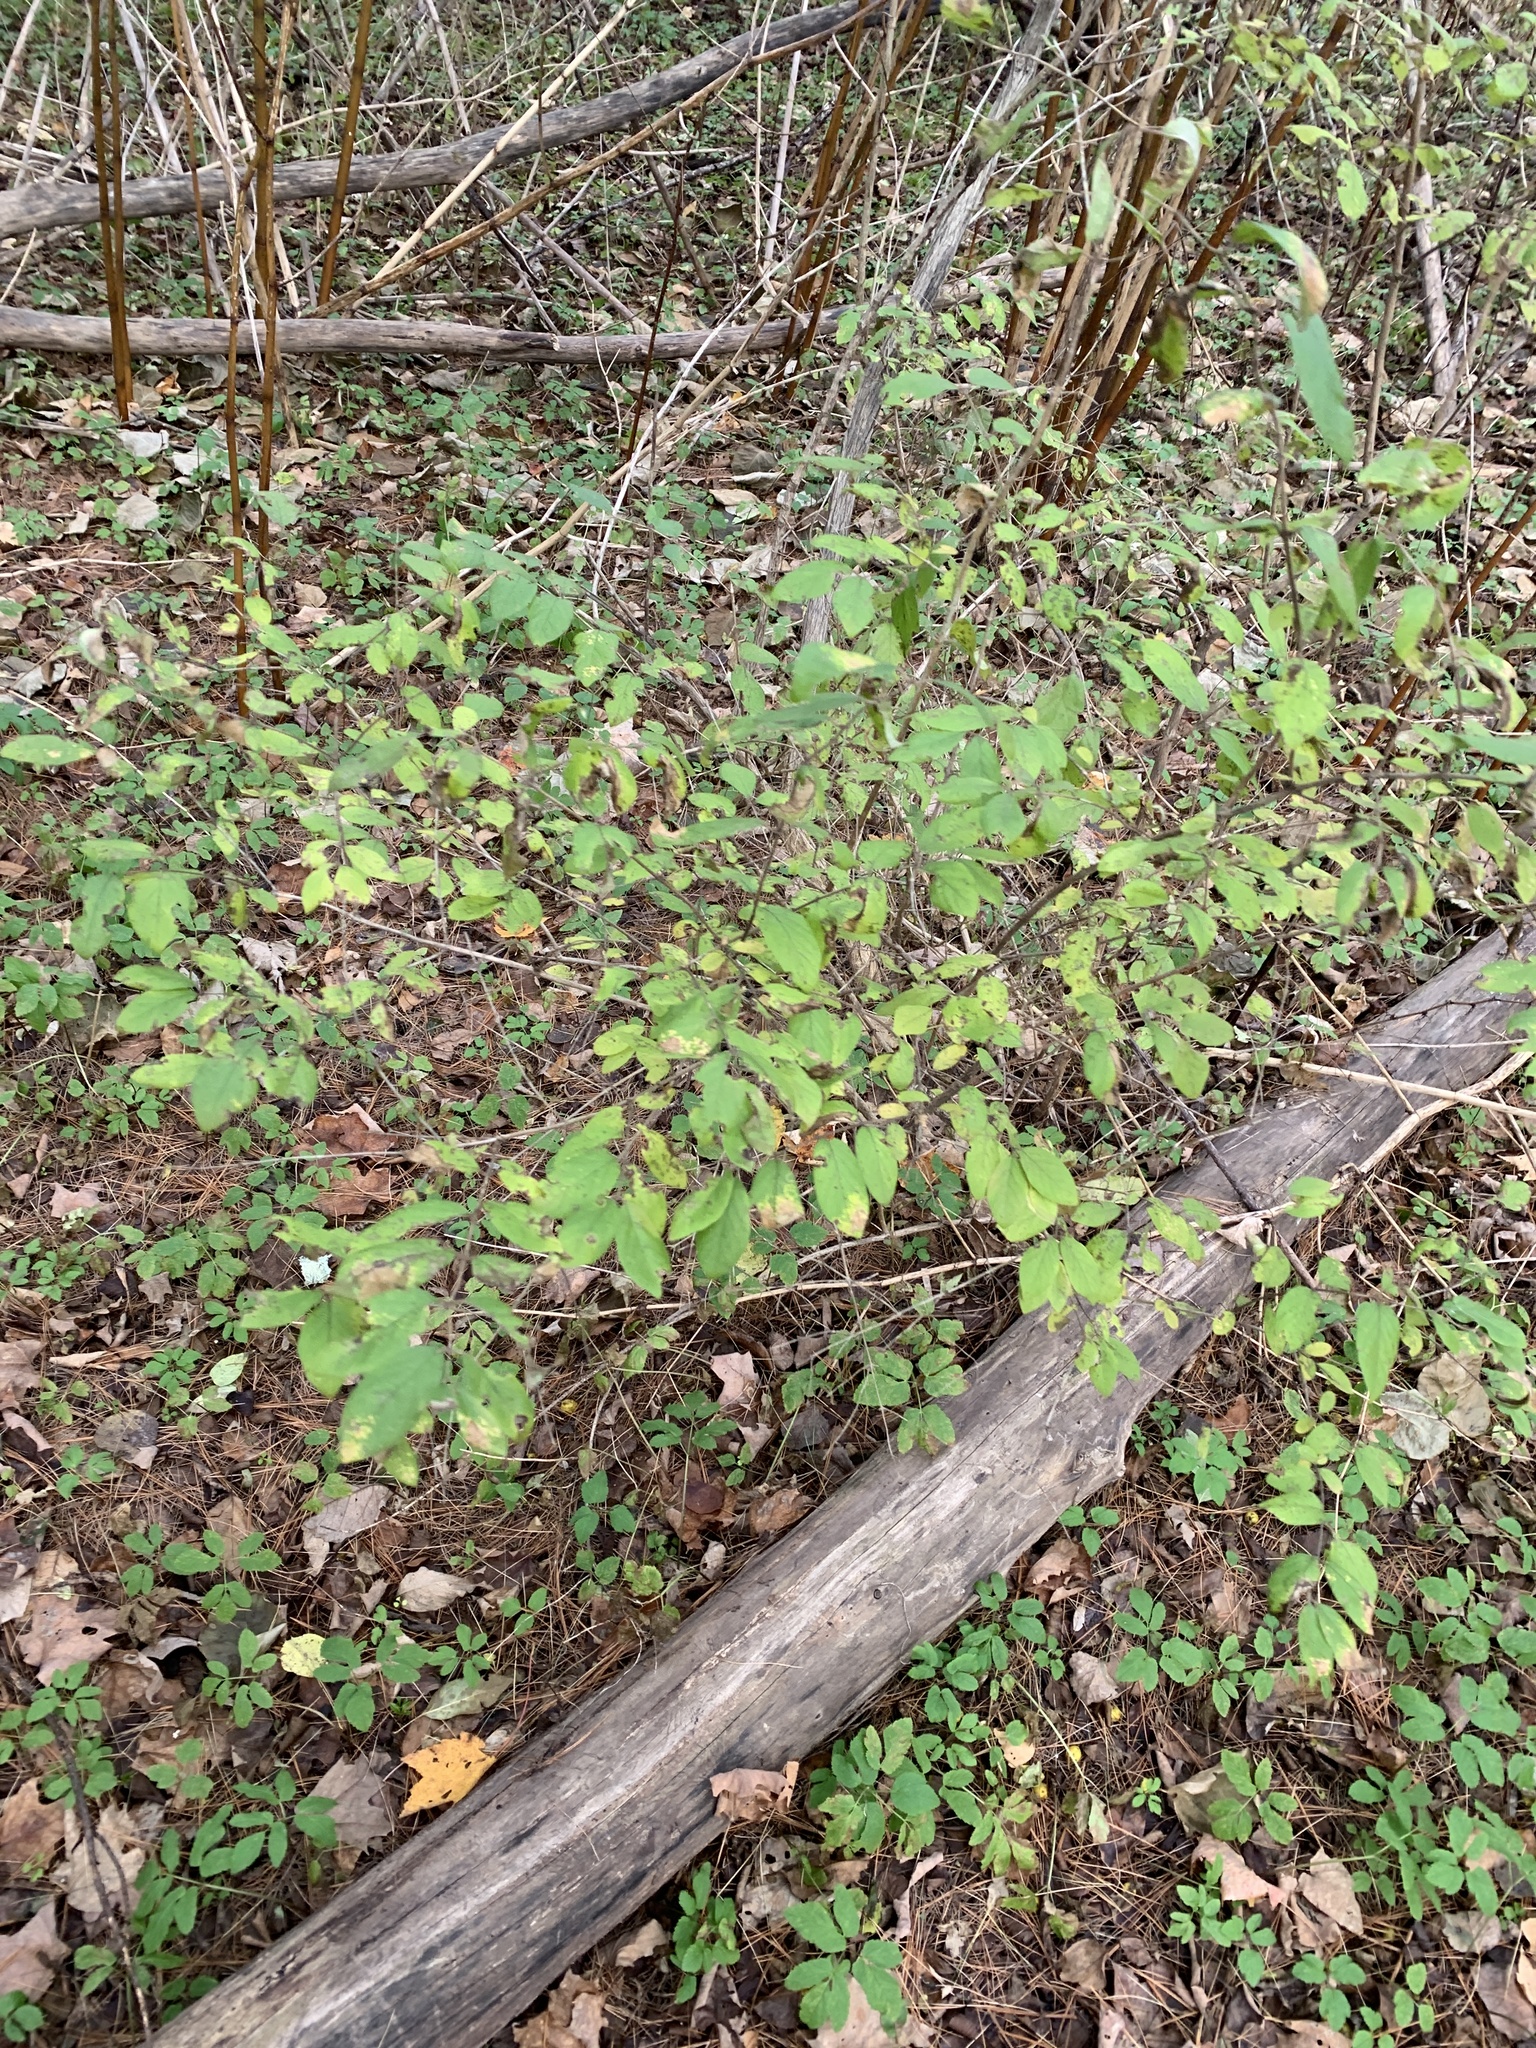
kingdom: Plantae
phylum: Tracheophyta
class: Magnoliopsida
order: Dipsacales
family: Caprifoliaceae
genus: Lonicera
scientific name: Lonicera
